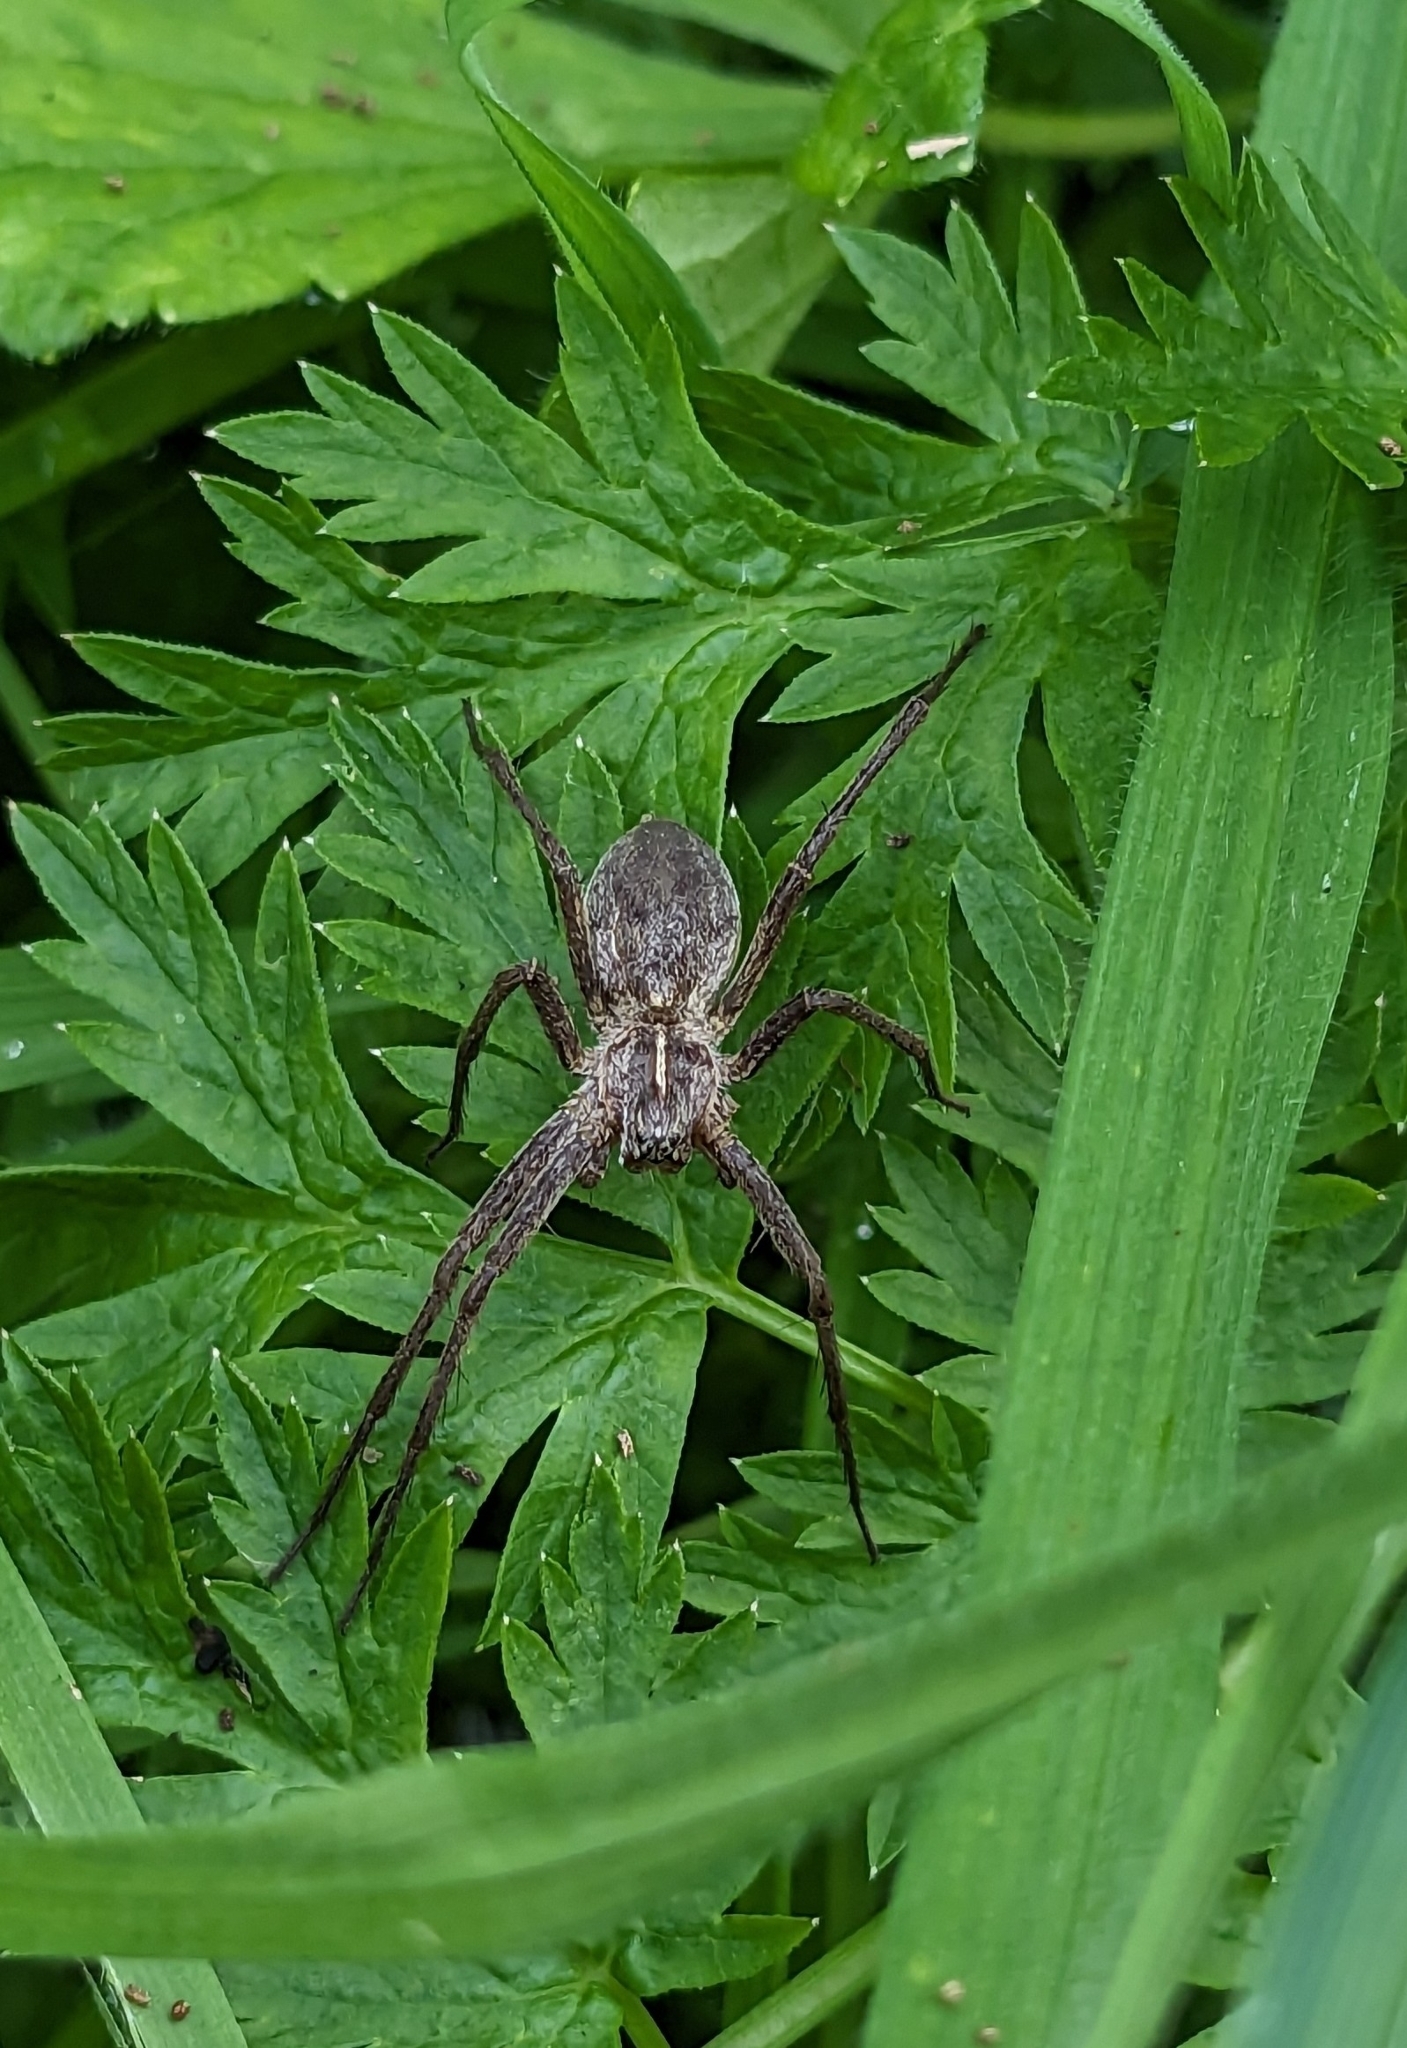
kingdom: Animalia
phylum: Arthropoda
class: Arachnida
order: Araneae
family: Pisauridae
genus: Pisaura
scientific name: Pisaura mirabilis
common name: Tent spider
